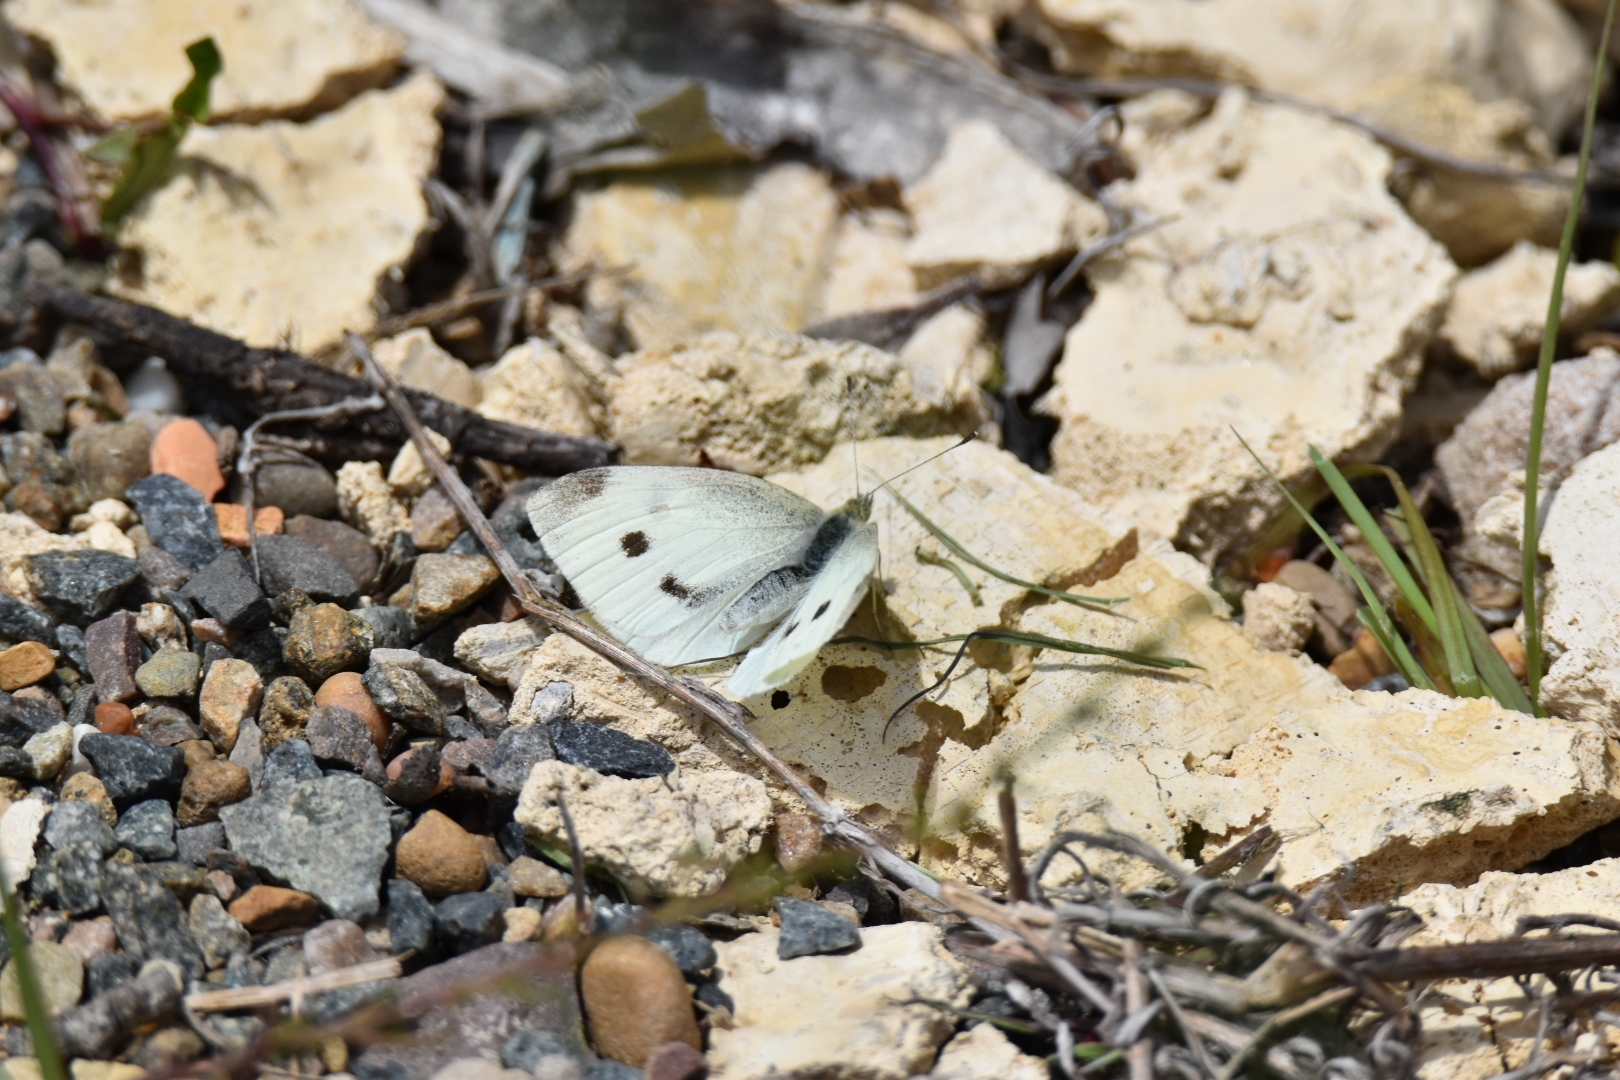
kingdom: Animalia
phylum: Arthropoda
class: Insecta
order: Lepidoptera
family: Pieridae
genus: Pieris
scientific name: Pieris rapae
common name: Small white
